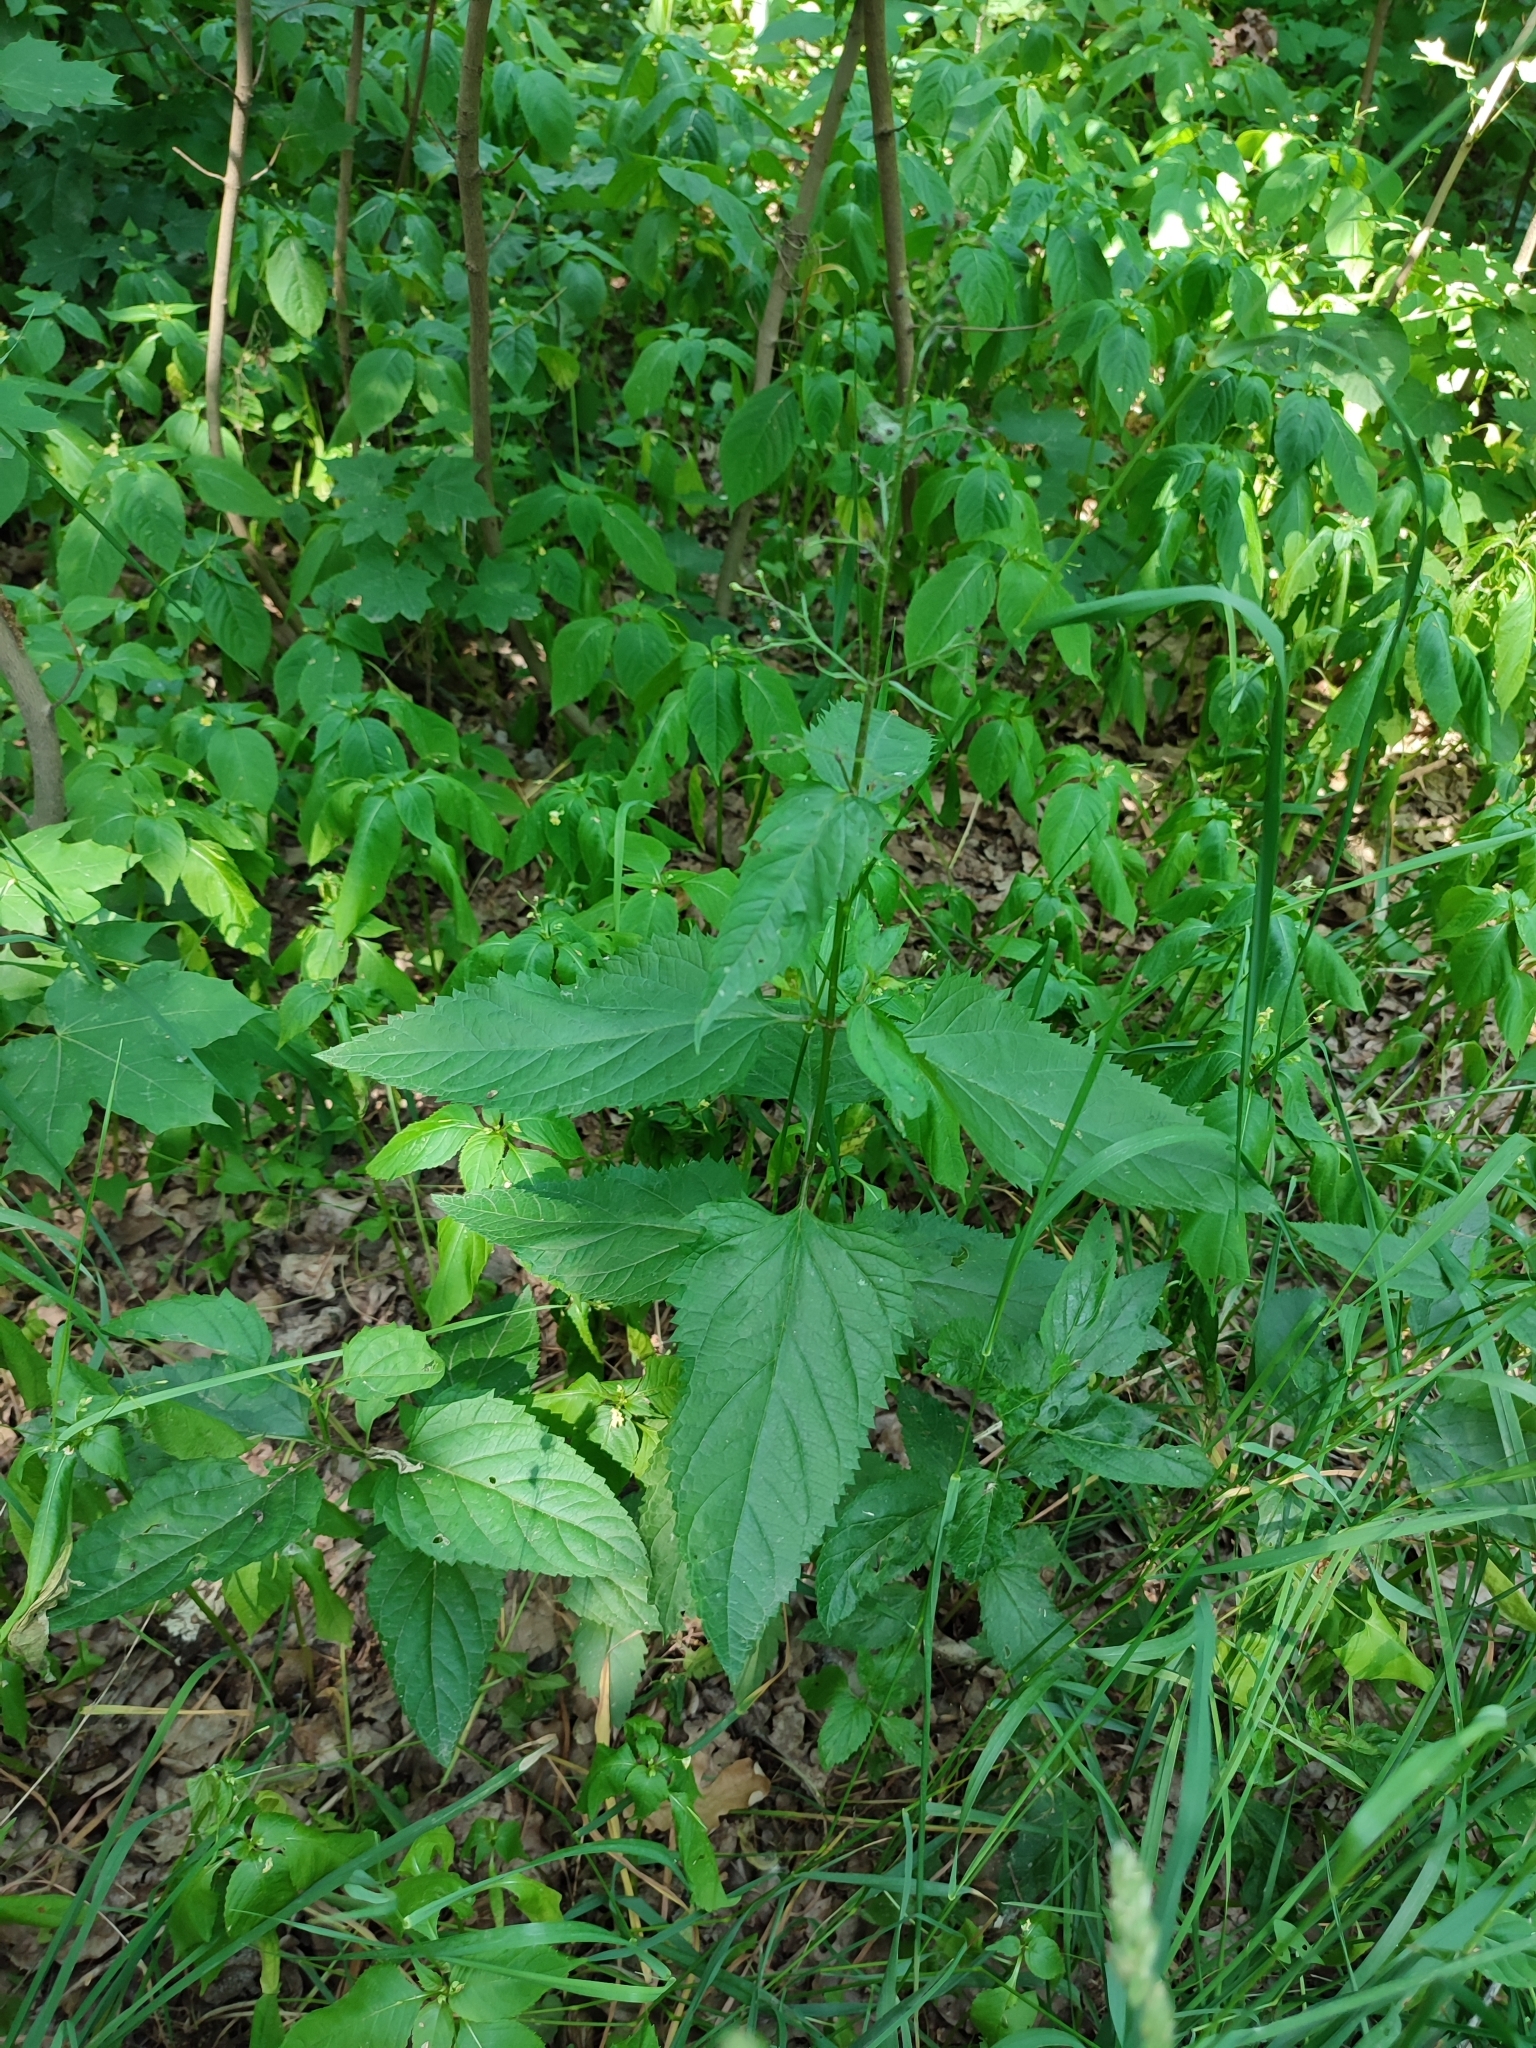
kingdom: Plantae
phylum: Tracheophyta
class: Magnoliopsida
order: Lamiales
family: Scrophulariaceae
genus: Scrophularia
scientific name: Scrophularia nodosa
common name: Common figwort
